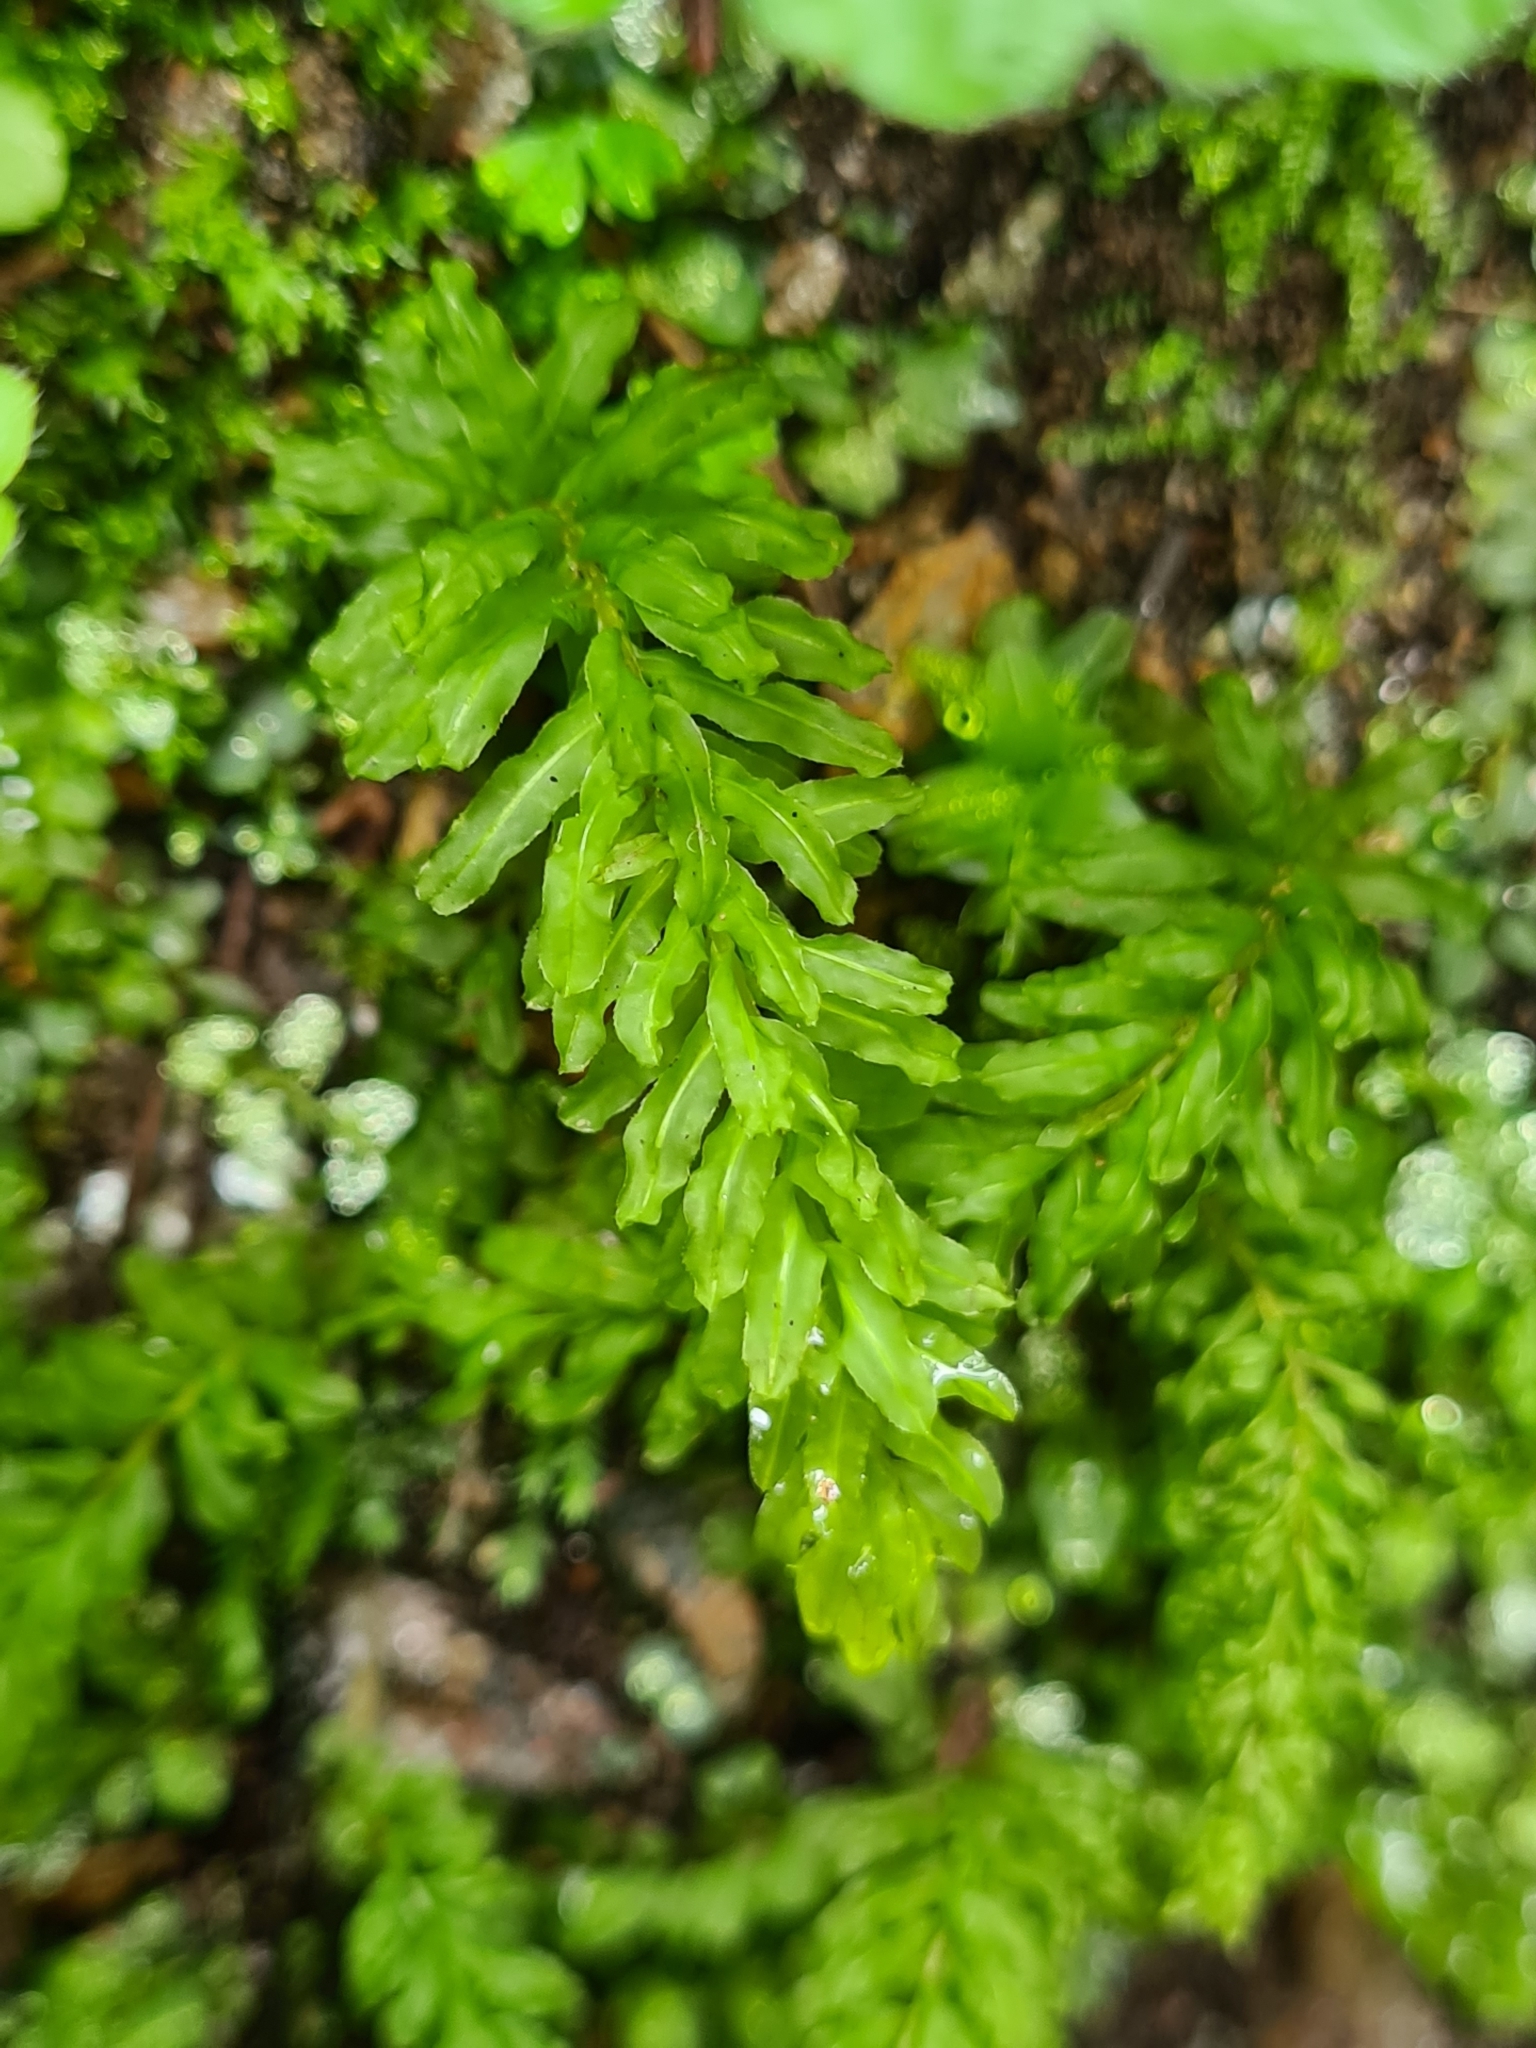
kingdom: Plantae
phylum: Bryophyta
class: Bryopsida
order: Bryales
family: Mniaceae
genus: Plagiomnium
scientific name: Plagiomnium undulatum
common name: Hart's-tongue thyme-moss
